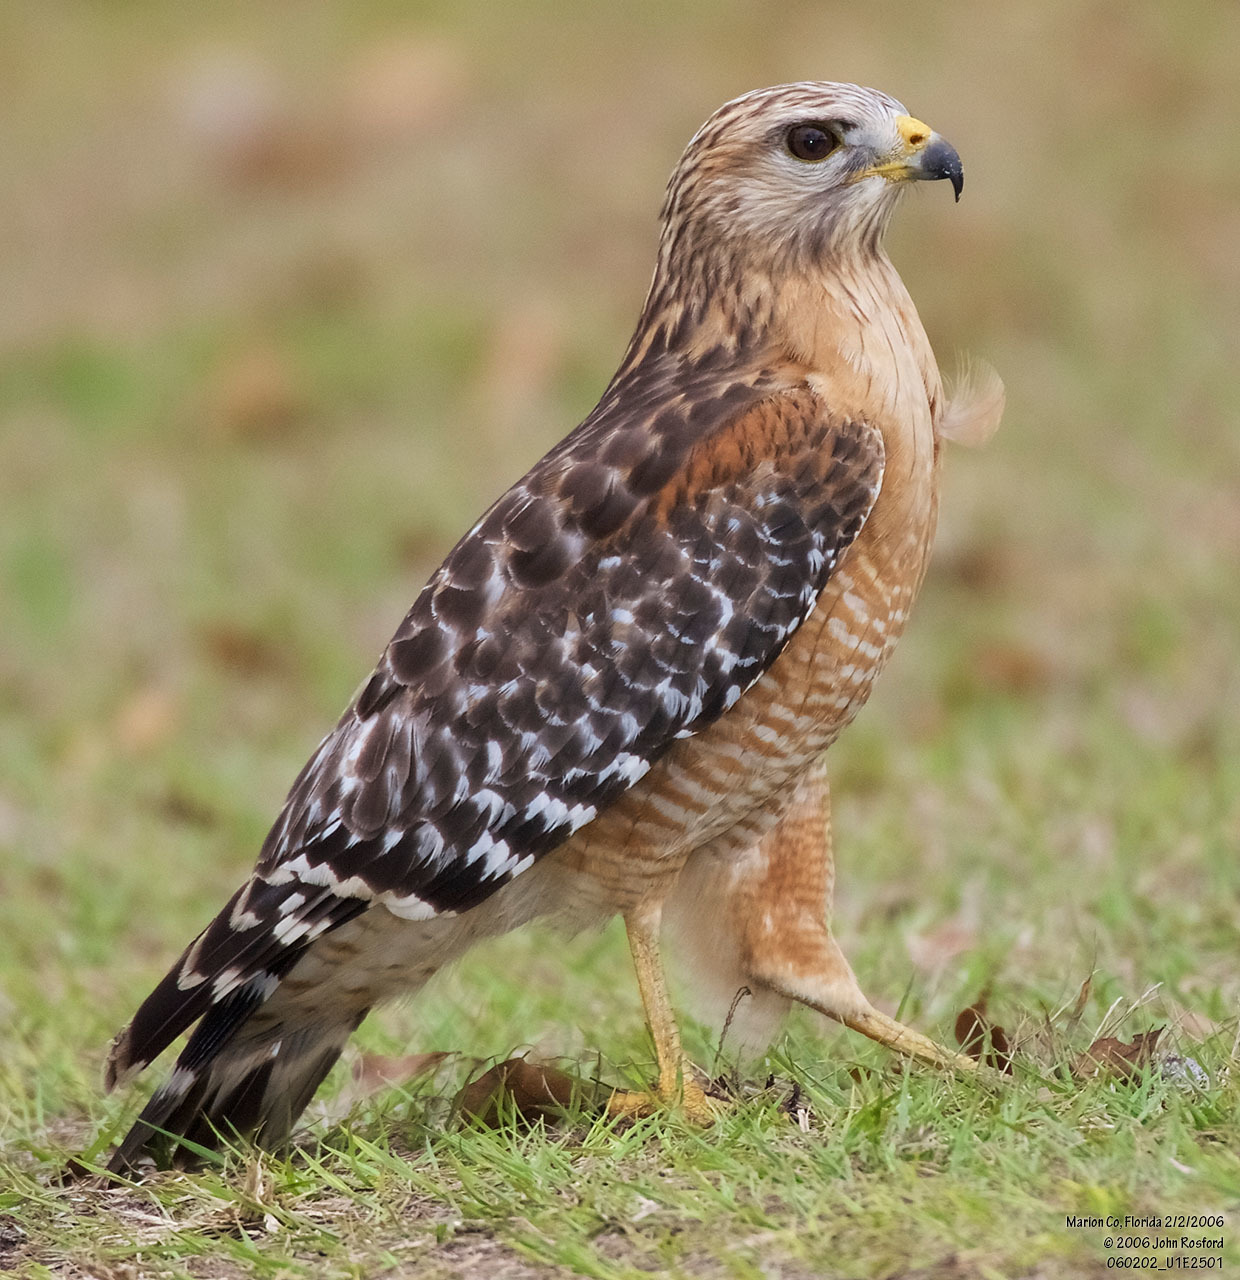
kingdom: Animalia
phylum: Chordata
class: Aves
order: Accipitriformes
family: Accipitridae
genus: Buteo
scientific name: Buteo lineatus
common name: Red-shouldered hawk
